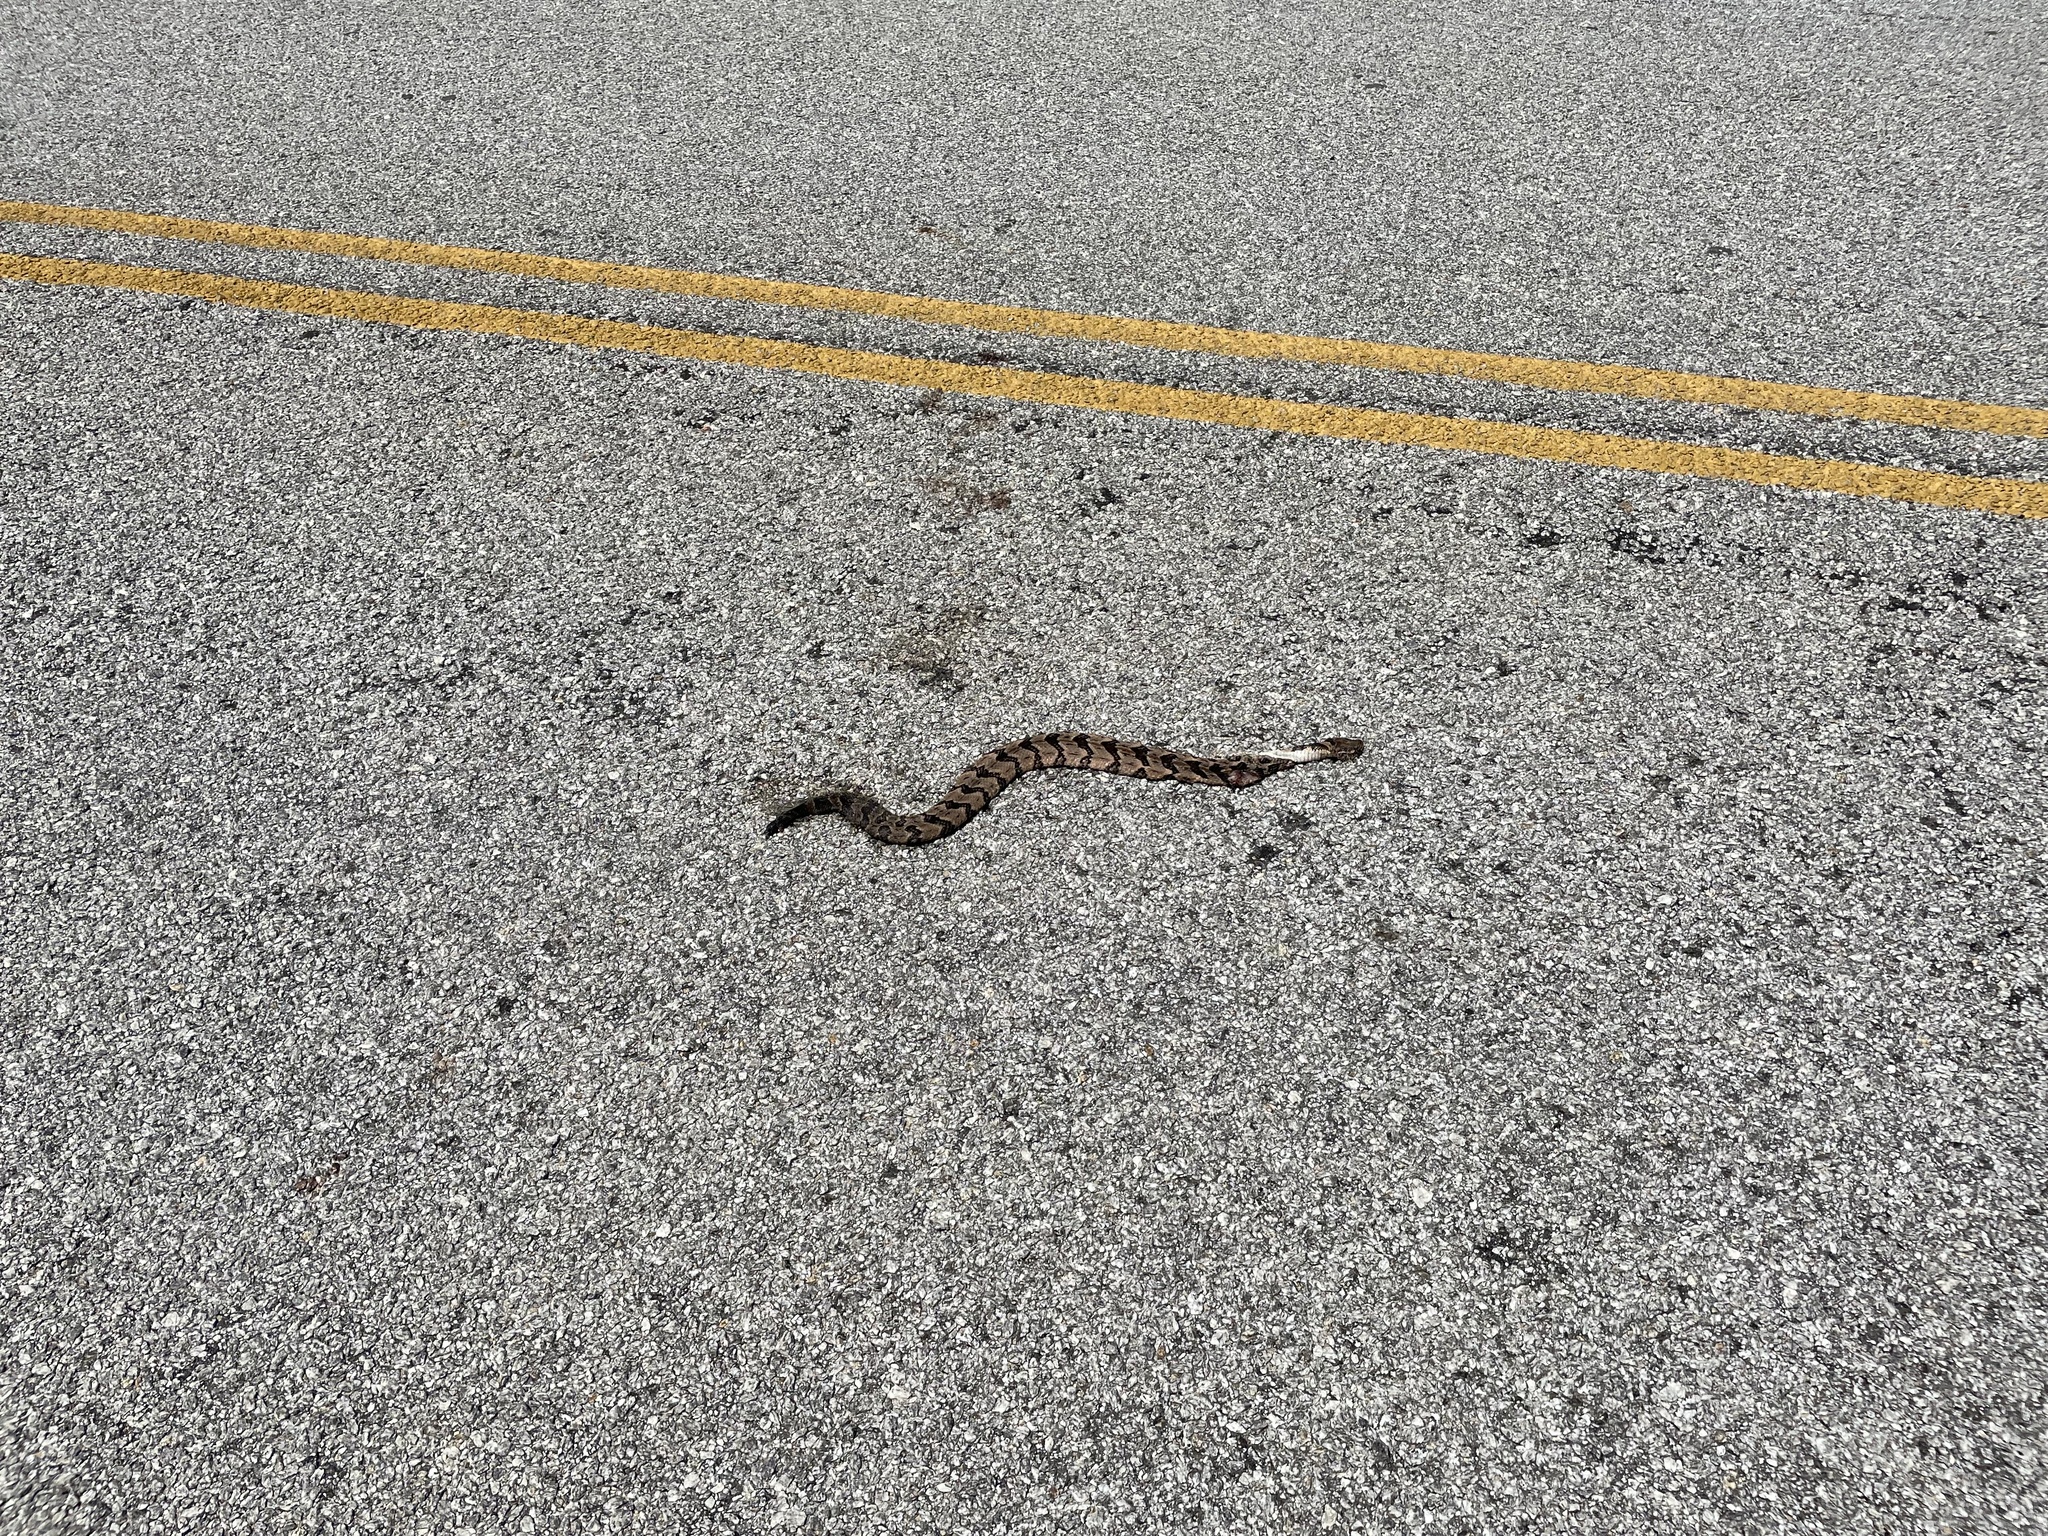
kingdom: Animalia
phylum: Chordata
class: Squamata
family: Viperidae
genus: Crotalus
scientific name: Crotalus horridus
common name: Timber rattlesnake
